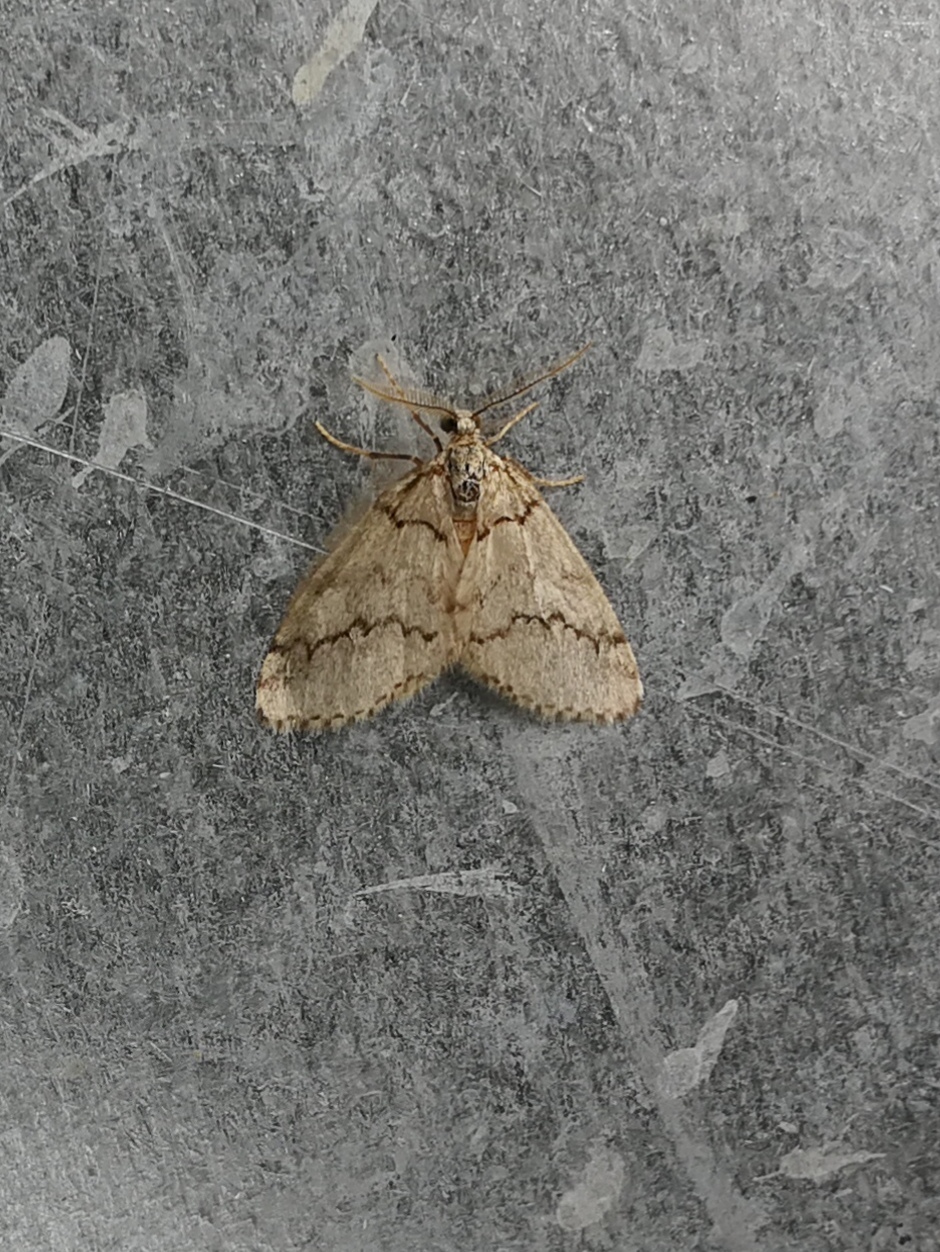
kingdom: Animalia
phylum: Arthropoda
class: Insecta
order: Lepidoptera
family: Geometridae
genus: Tephronia
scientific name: Tephronia lhommaria
